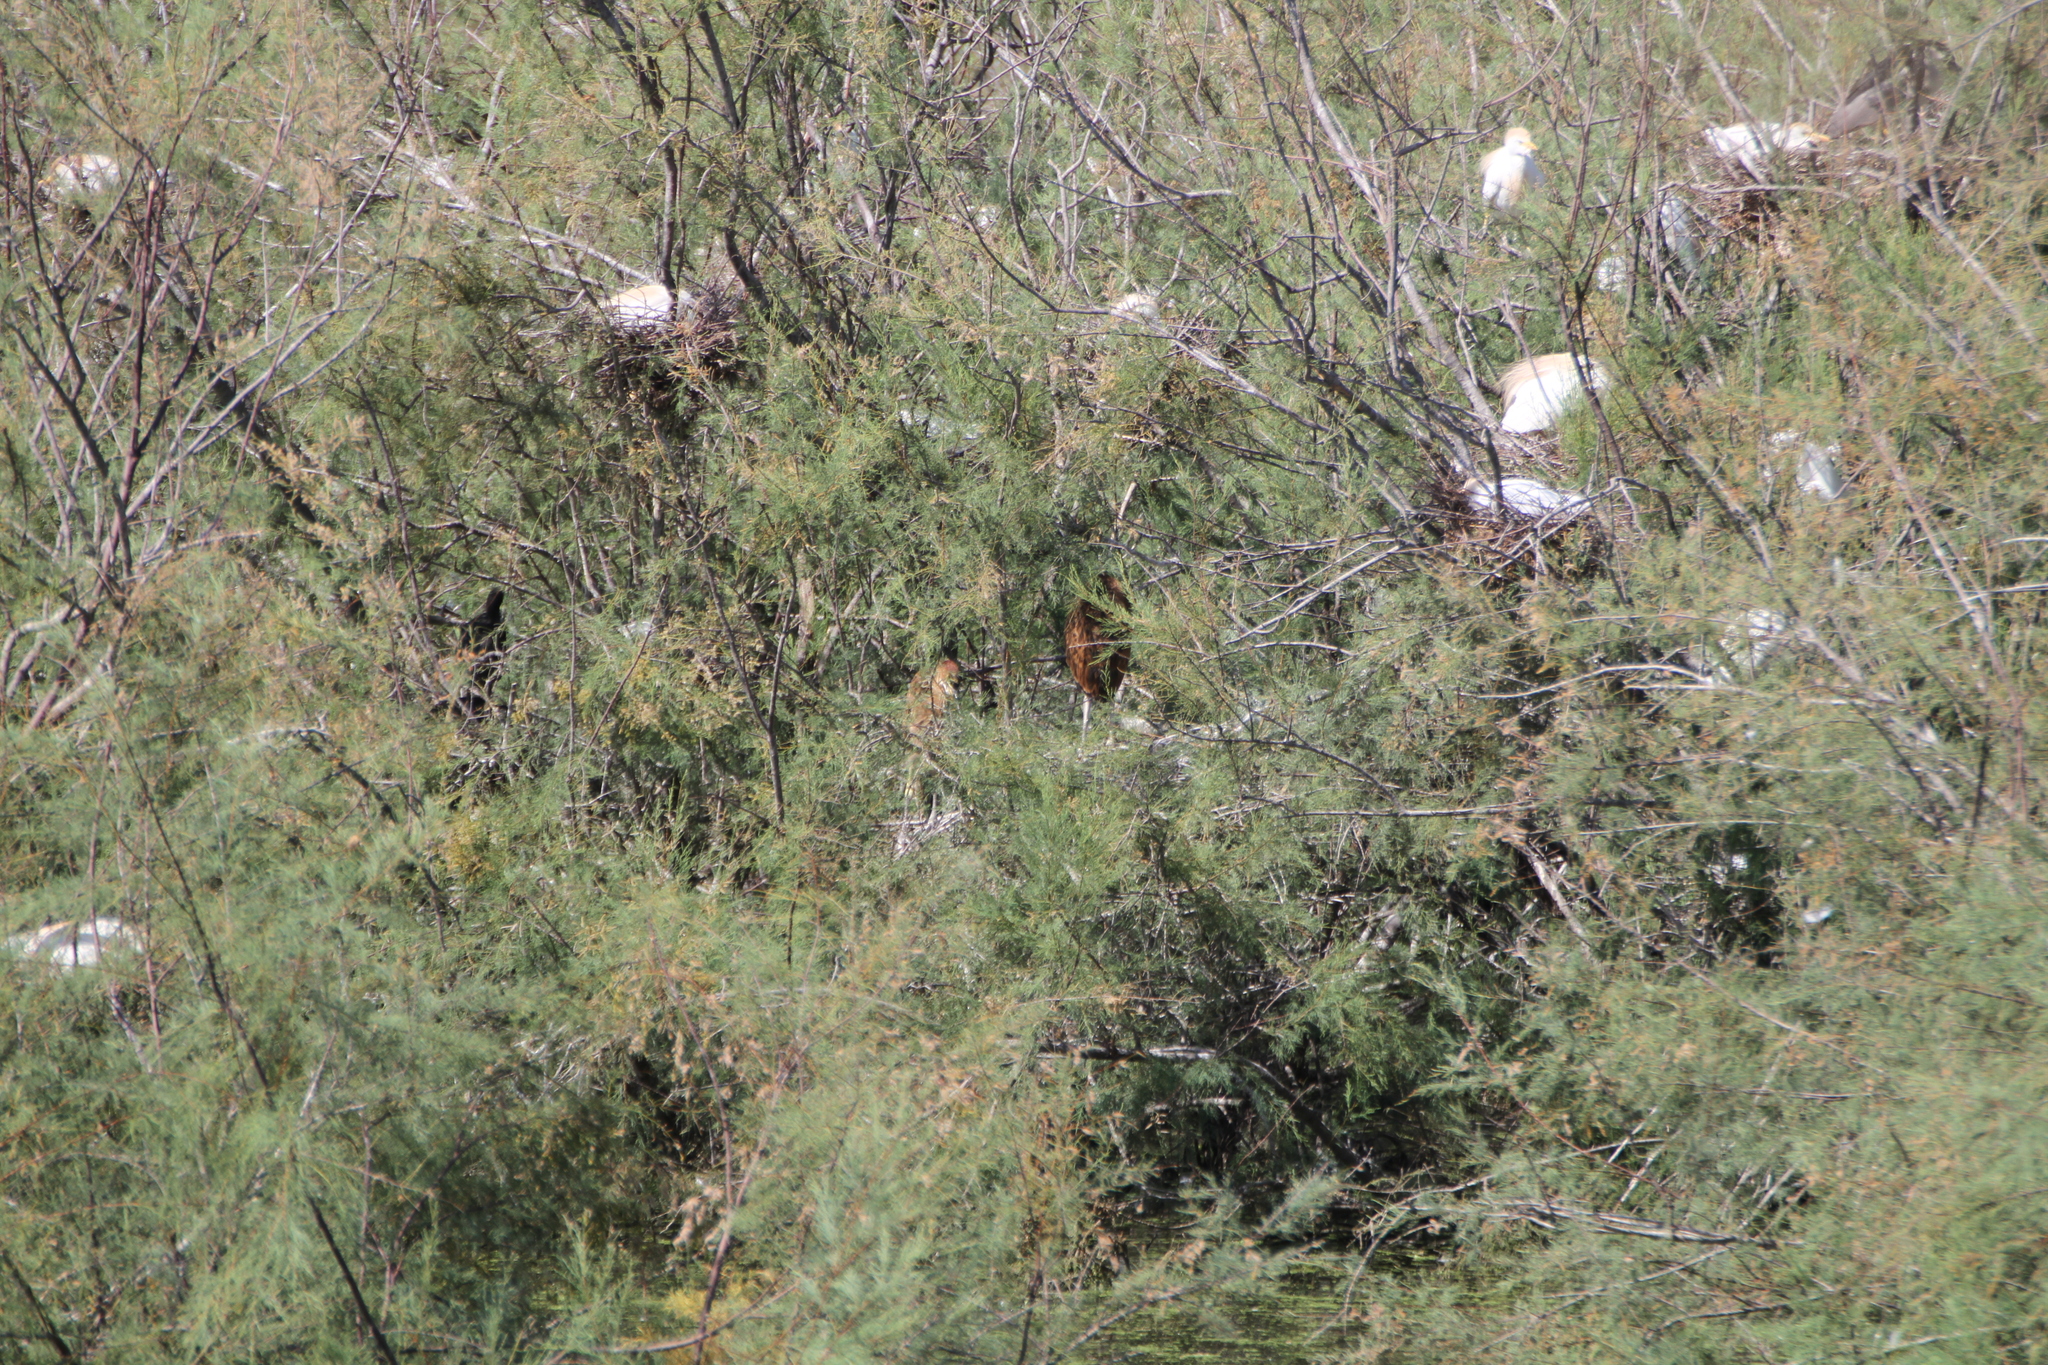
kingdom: Animalia
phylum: Chordata
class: Aves
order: Pelecaniformes
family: Ardeidae
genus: Ardea
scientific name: Ardea purpurea
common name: Purple heron
